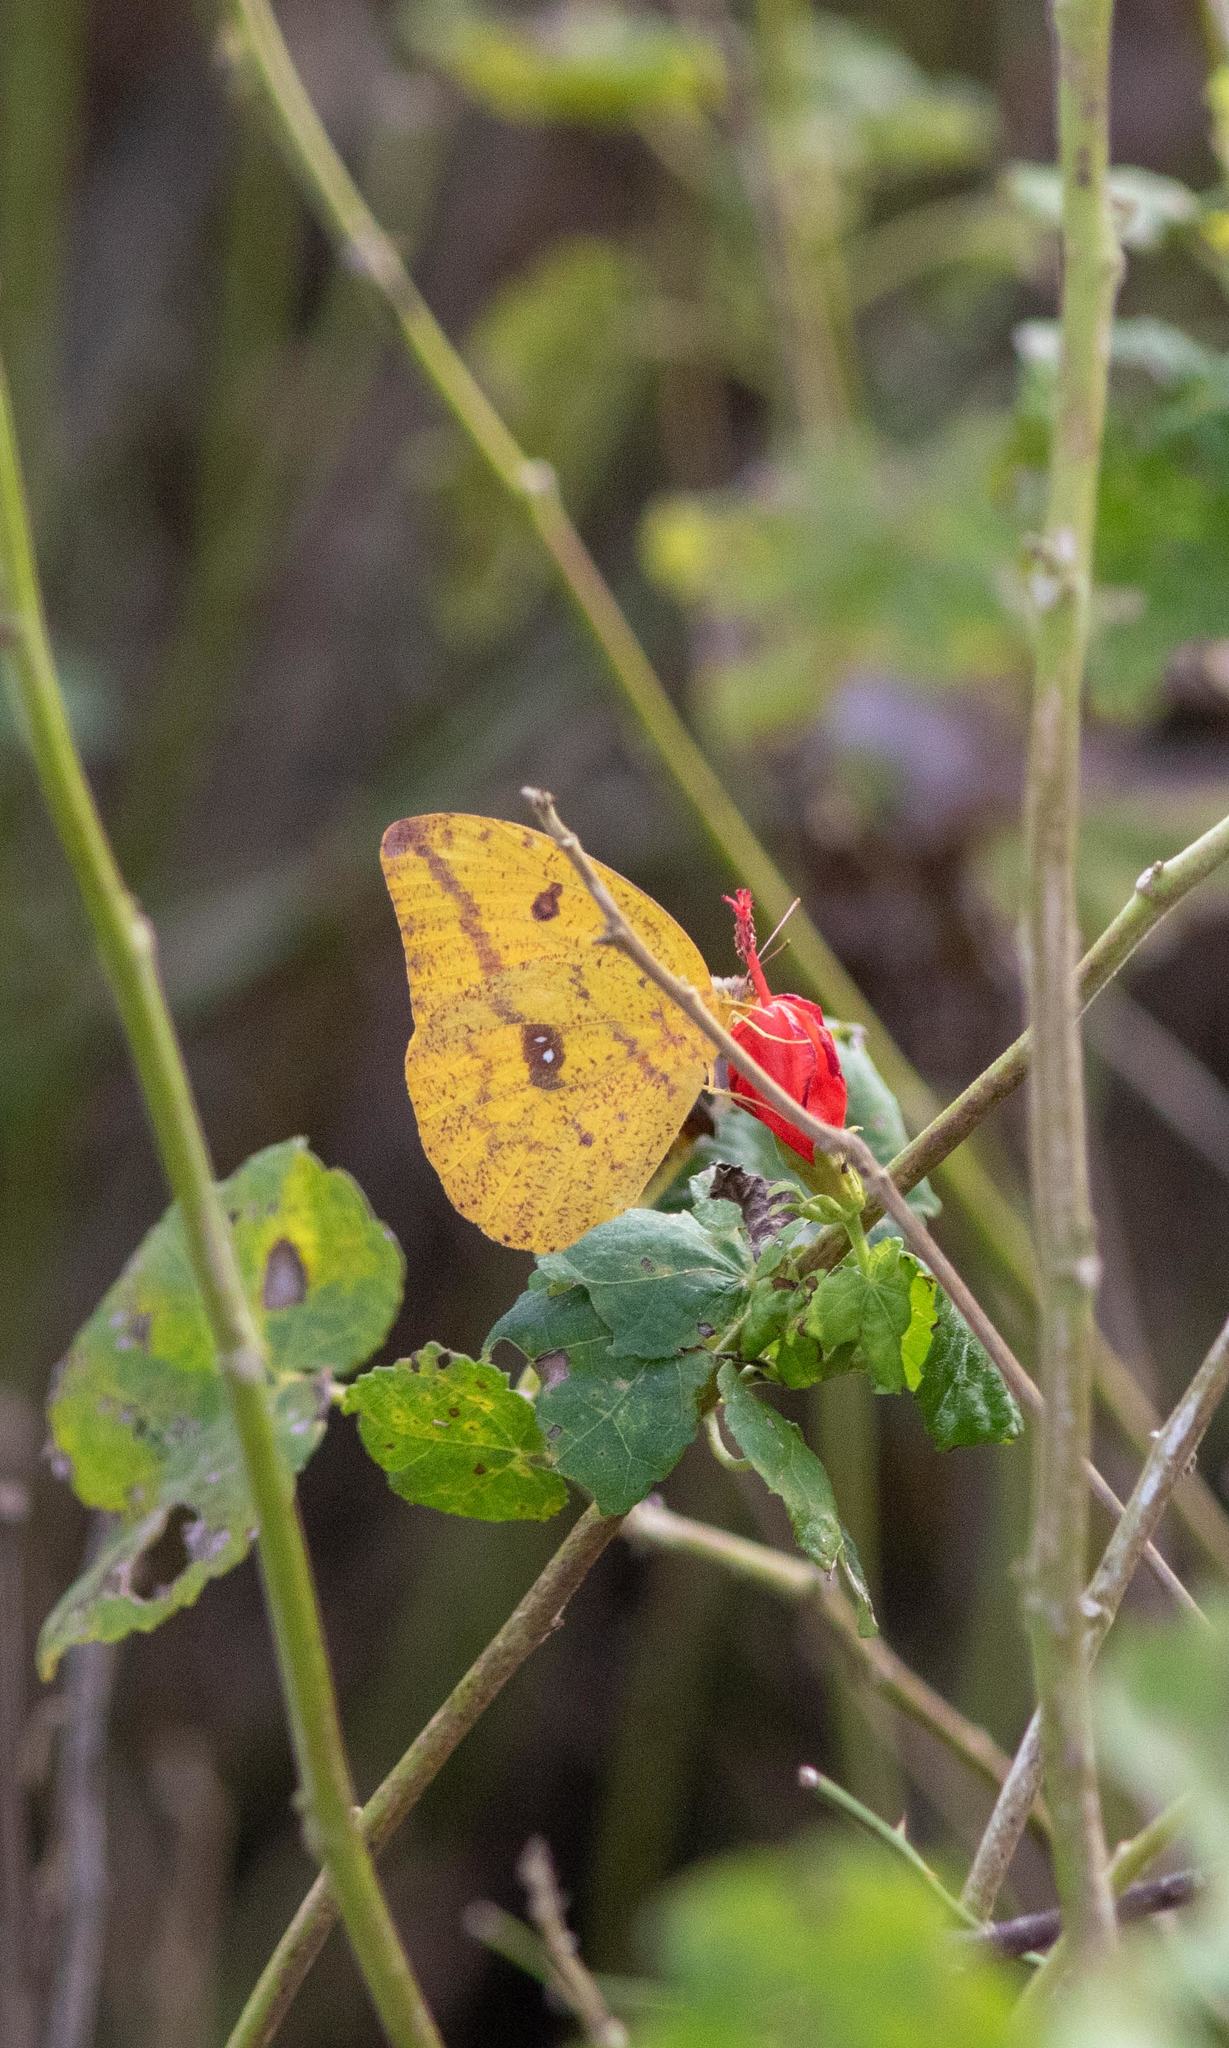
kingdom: Animalia
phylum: Arthropoda
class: Insecta
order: Lepidoptera
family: Pieridae
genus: Phoebis
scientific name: Phoebis agarithe
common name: Large orange sulphur
